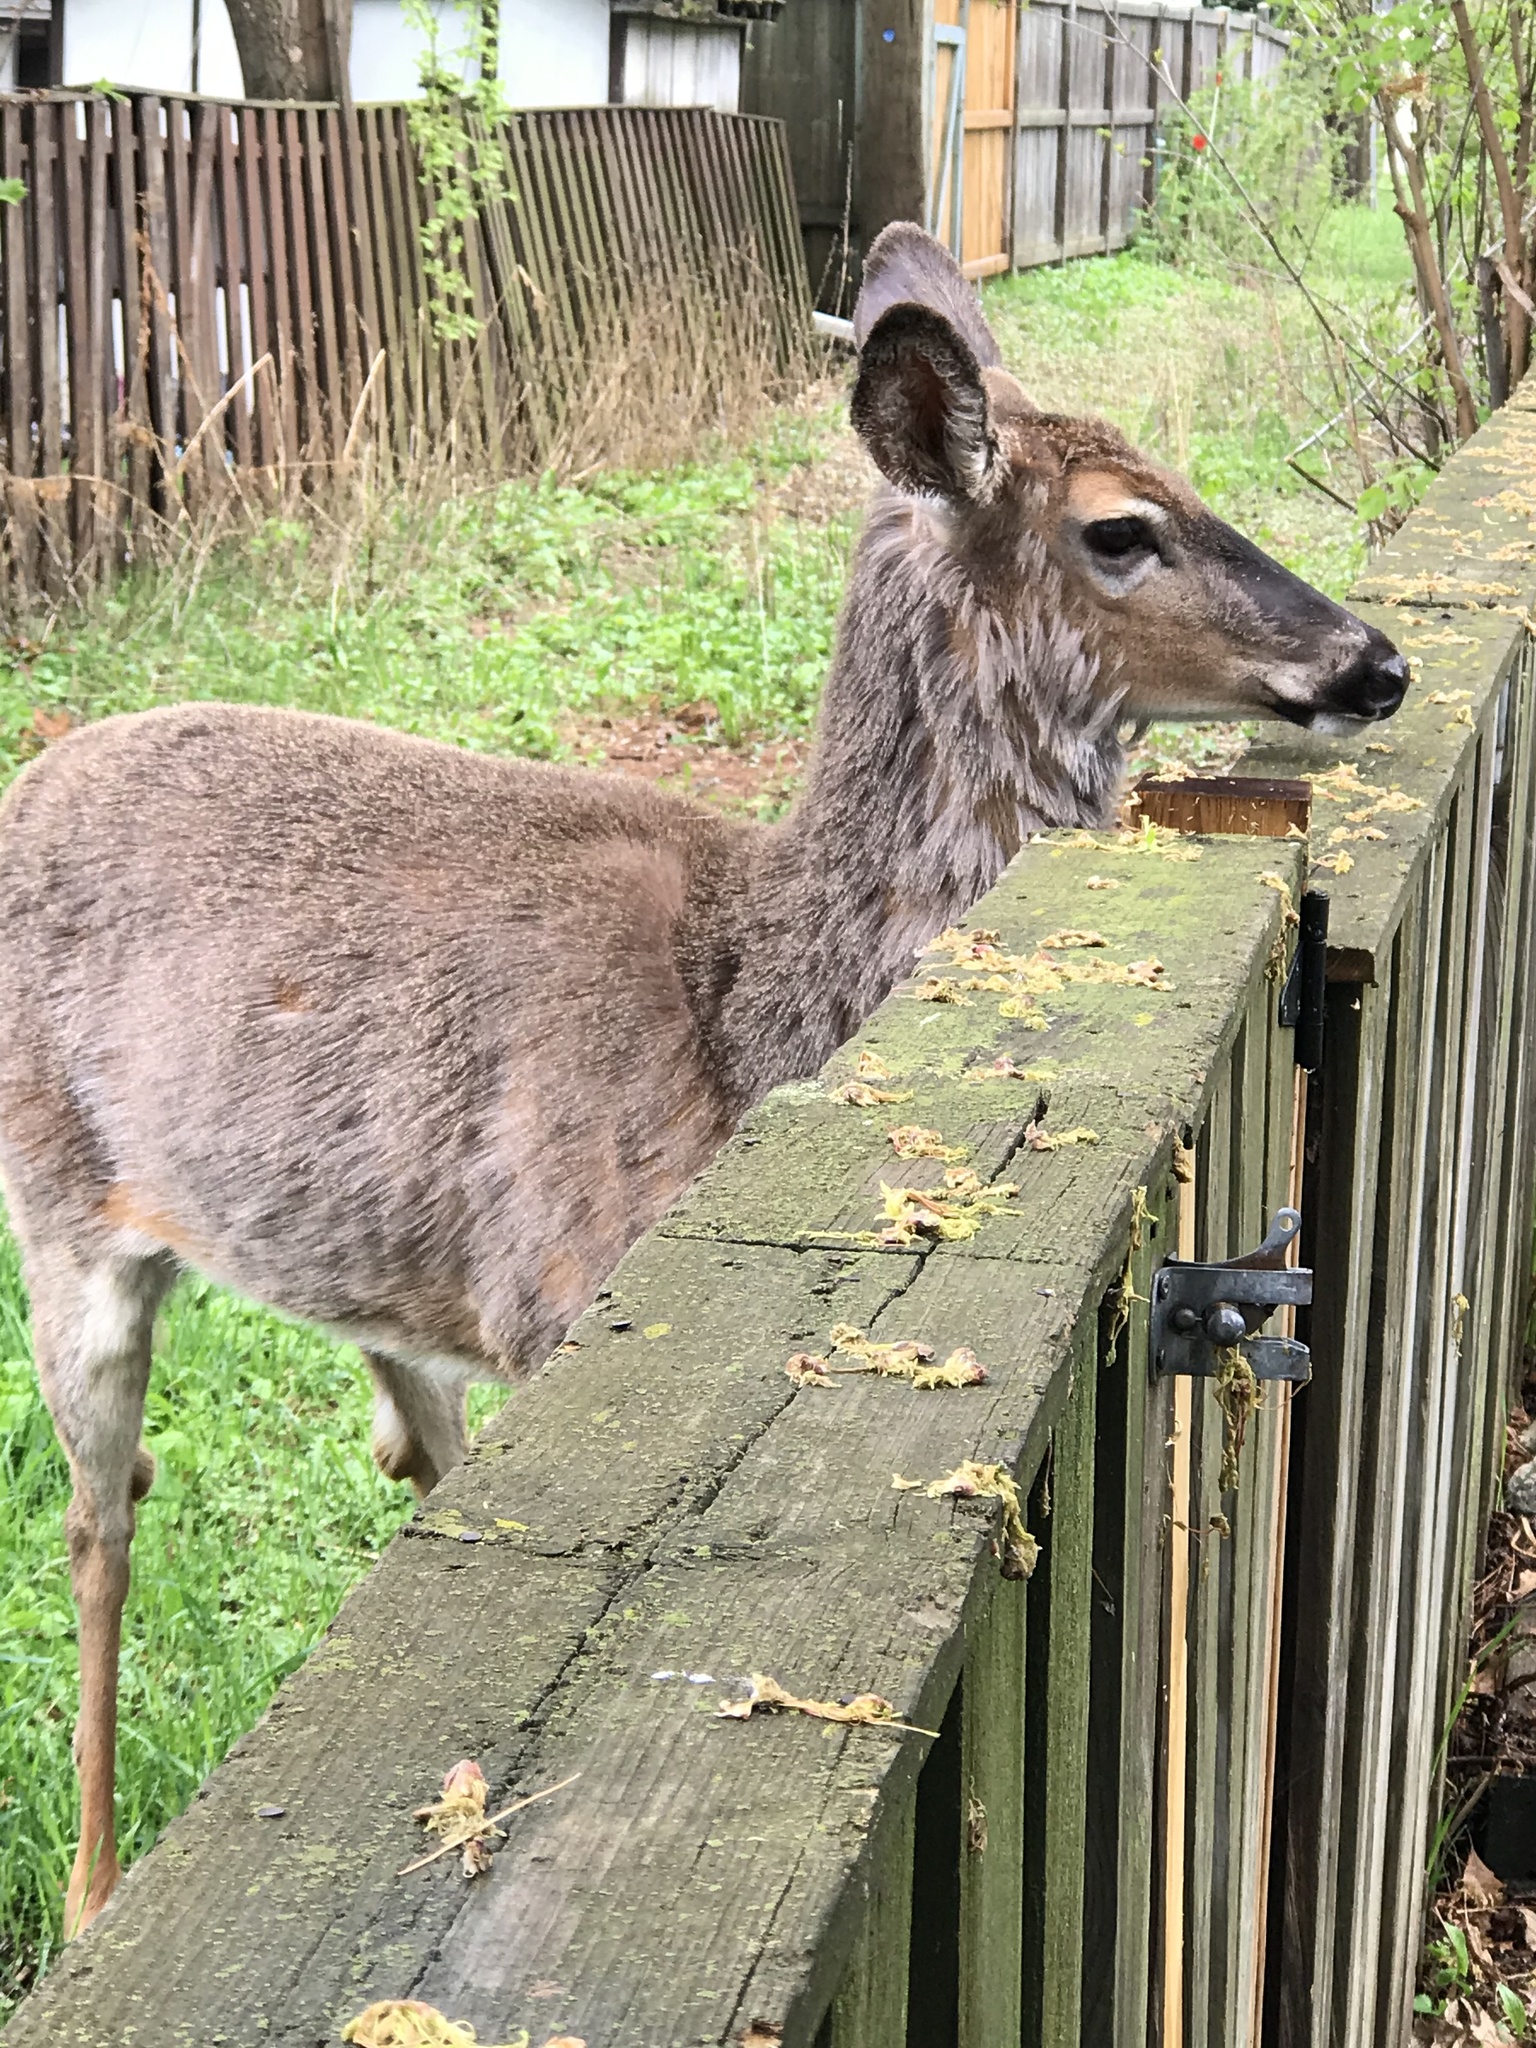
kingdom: Animalia
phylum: Chordata
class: Mammalia
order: Artiodactyla
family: Cervidae
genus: Odocoileus
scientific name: Odocoileus virginianus
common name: White-tailed deer
